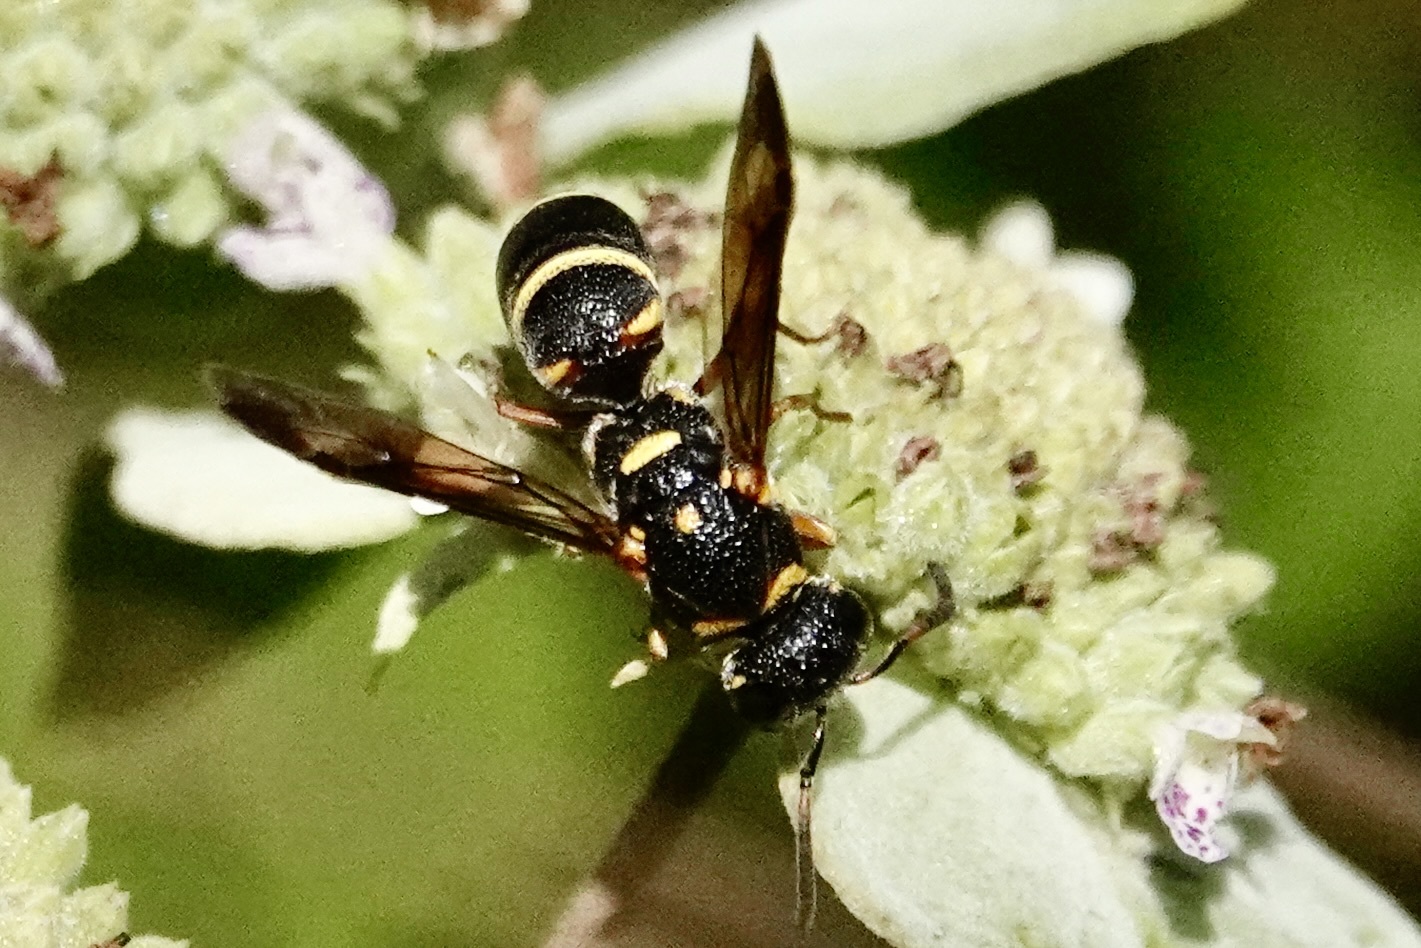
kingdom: Animalia
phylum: Arthropoda
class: Insecta
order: Hymenoptera
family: Eumenidae
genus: Parancistrocerus
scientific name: Parancistrocerus fulvipes
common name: Potter wasp
